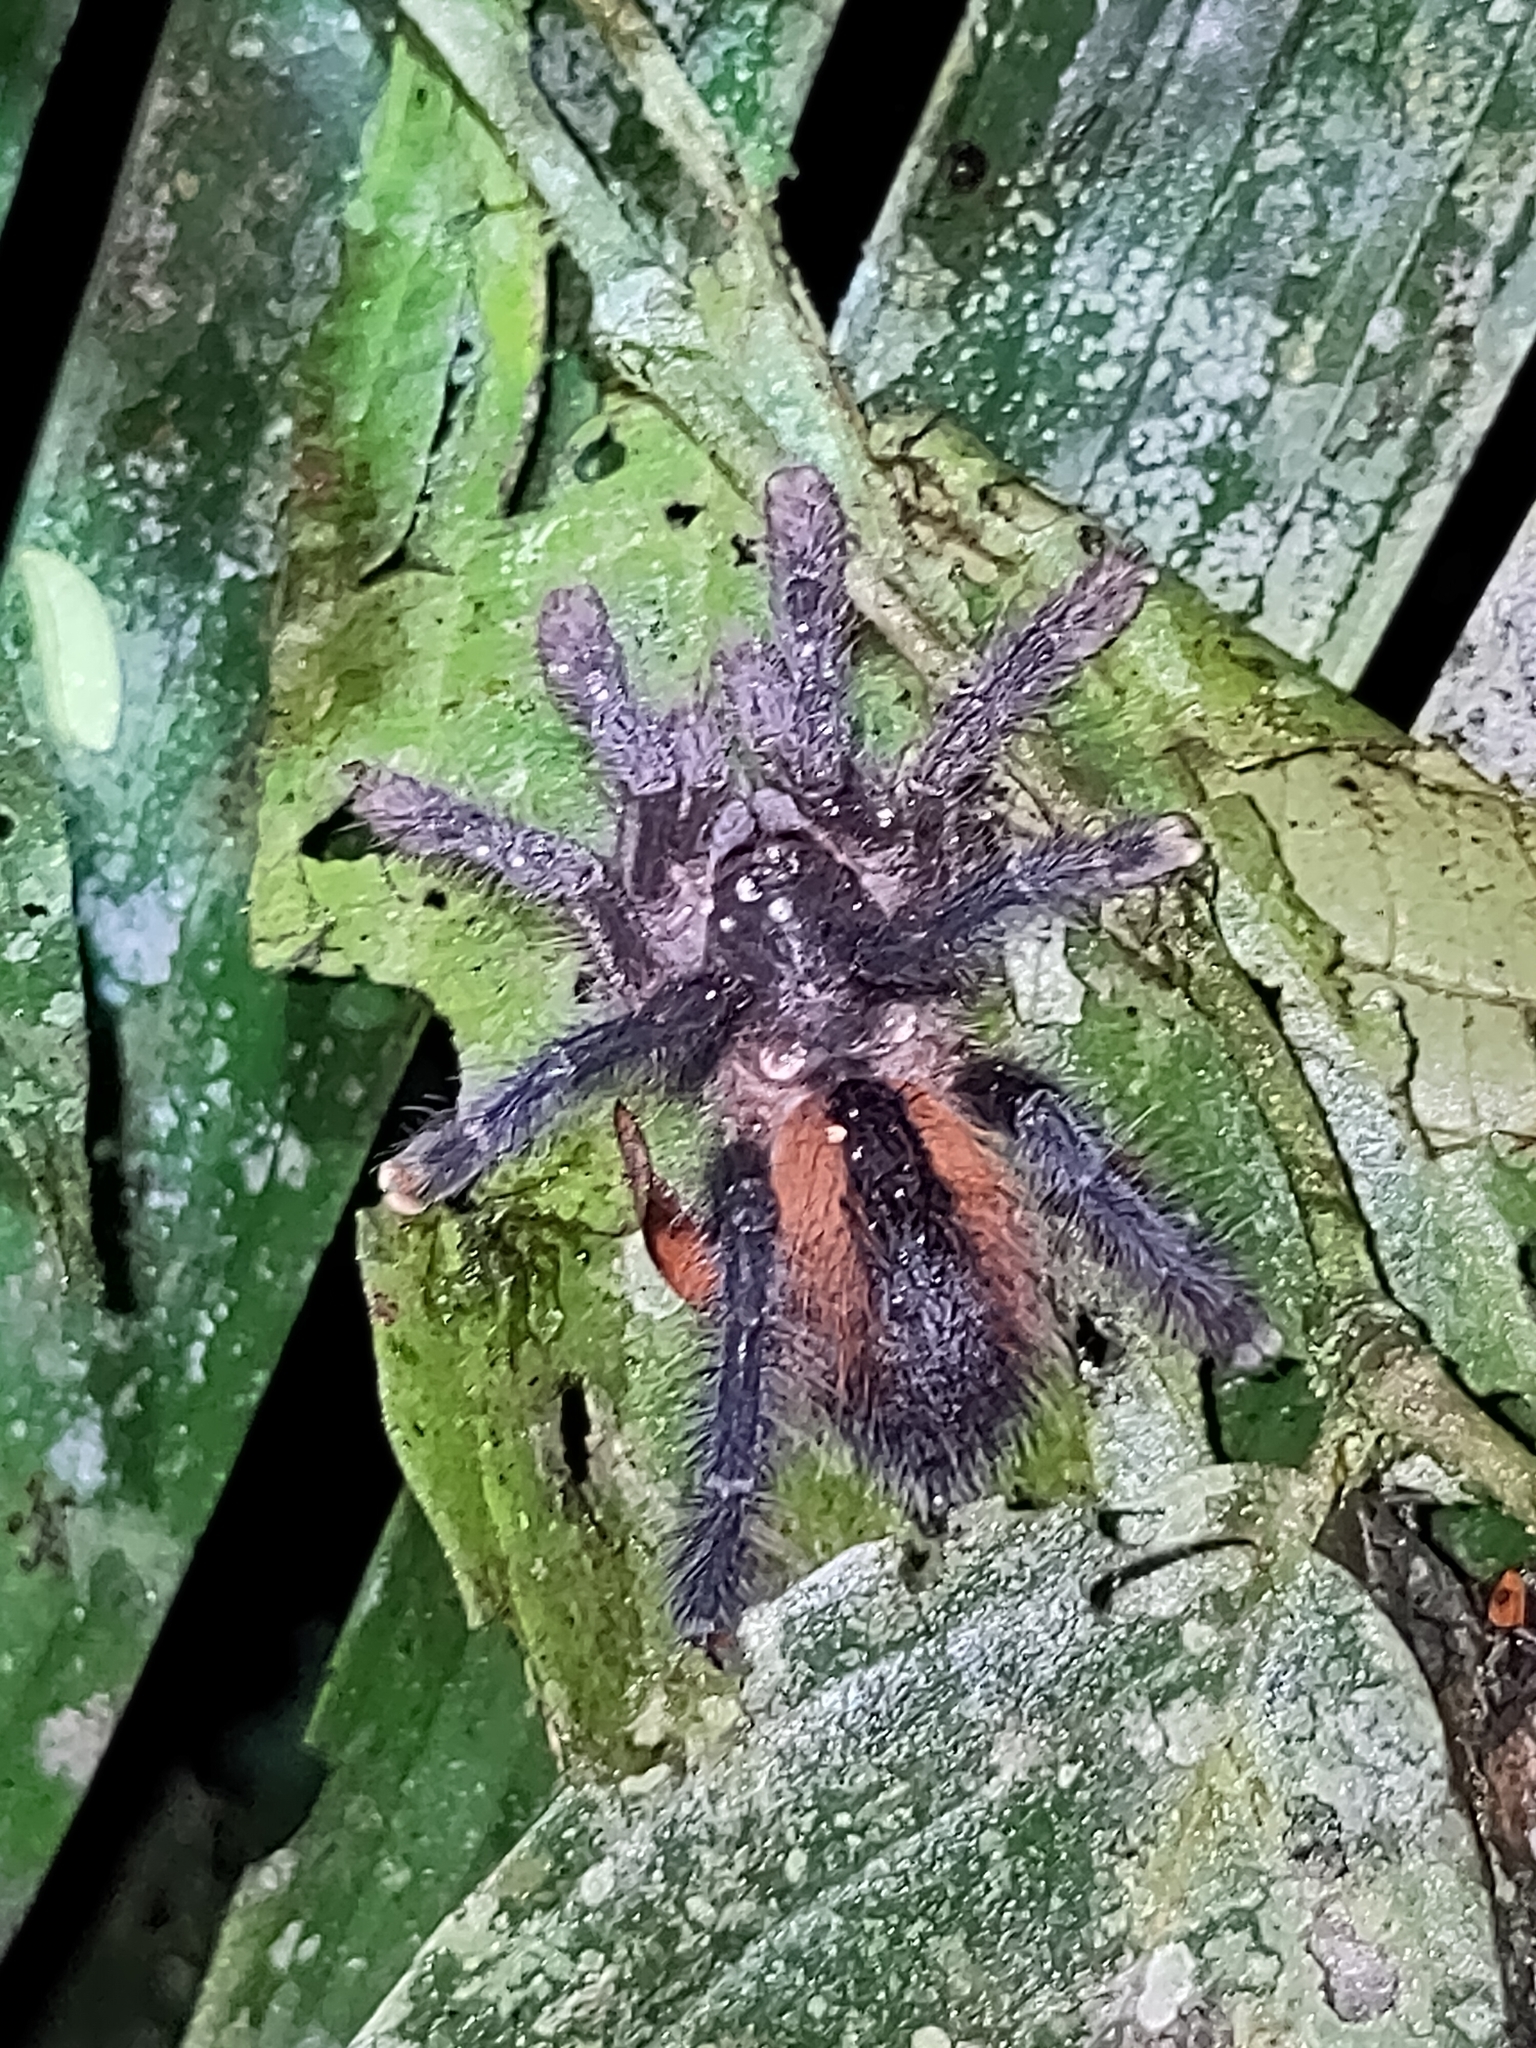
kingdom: Animalia
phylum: Arthropoda
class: Arachnida
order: Araneae
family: Theraphosidae
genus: Avicularia
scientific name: Avicularia hirschii
